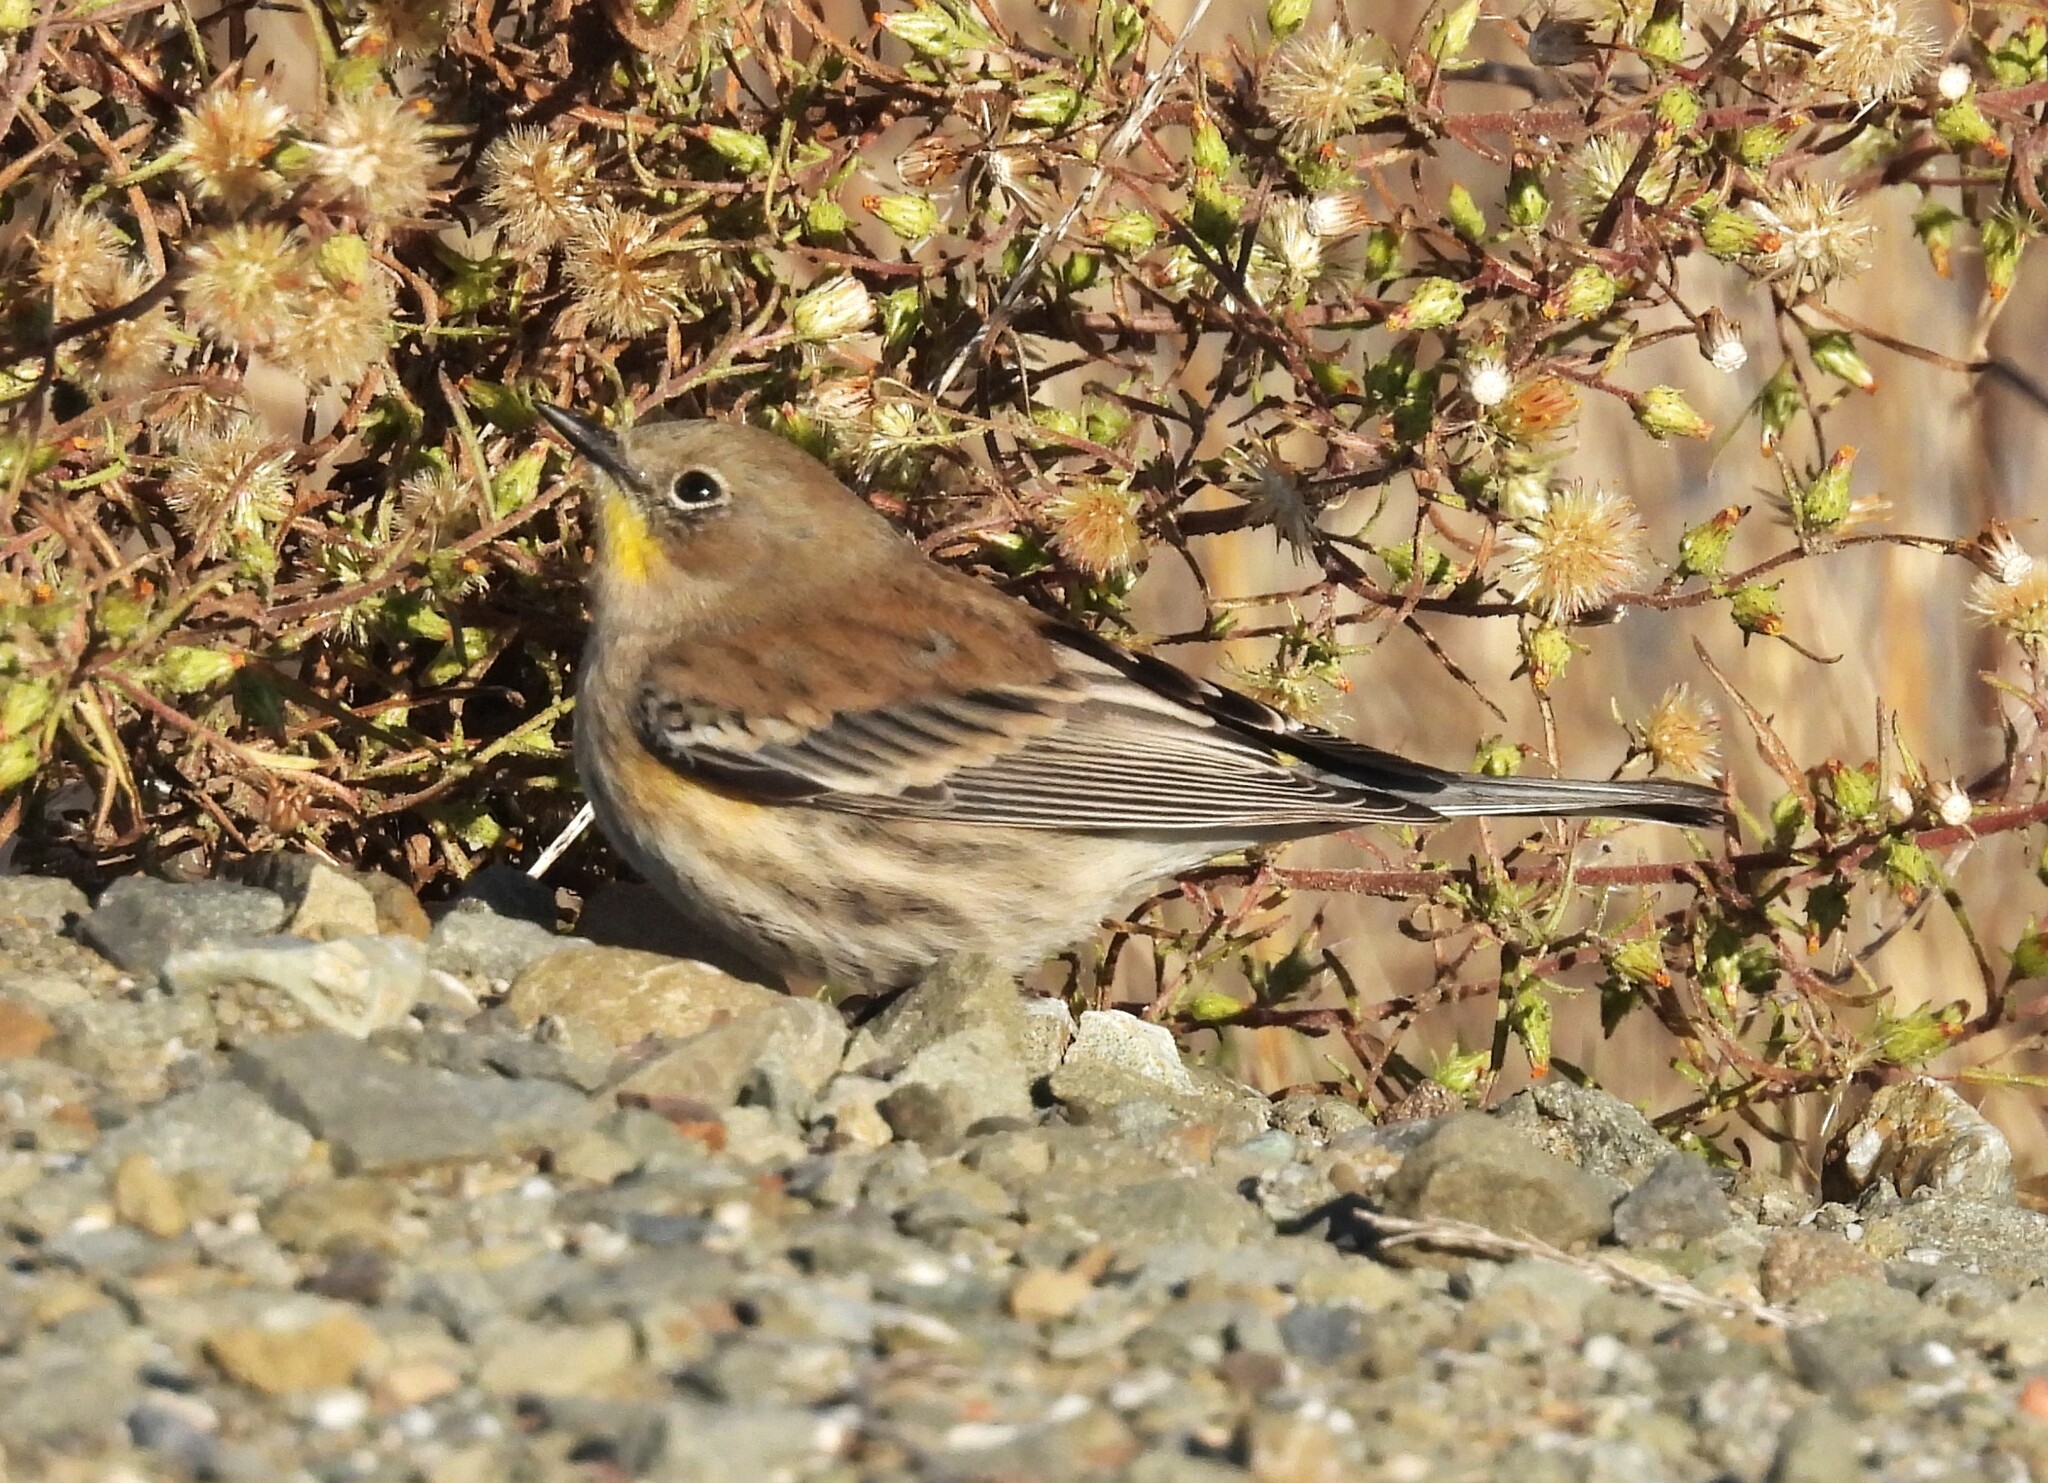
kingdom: Animalia
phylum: Chordata
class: Aves
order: Passeriformes
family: Parulidae
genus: Setophaga
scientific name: Setophaga coronata
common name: Myrtle warbler
